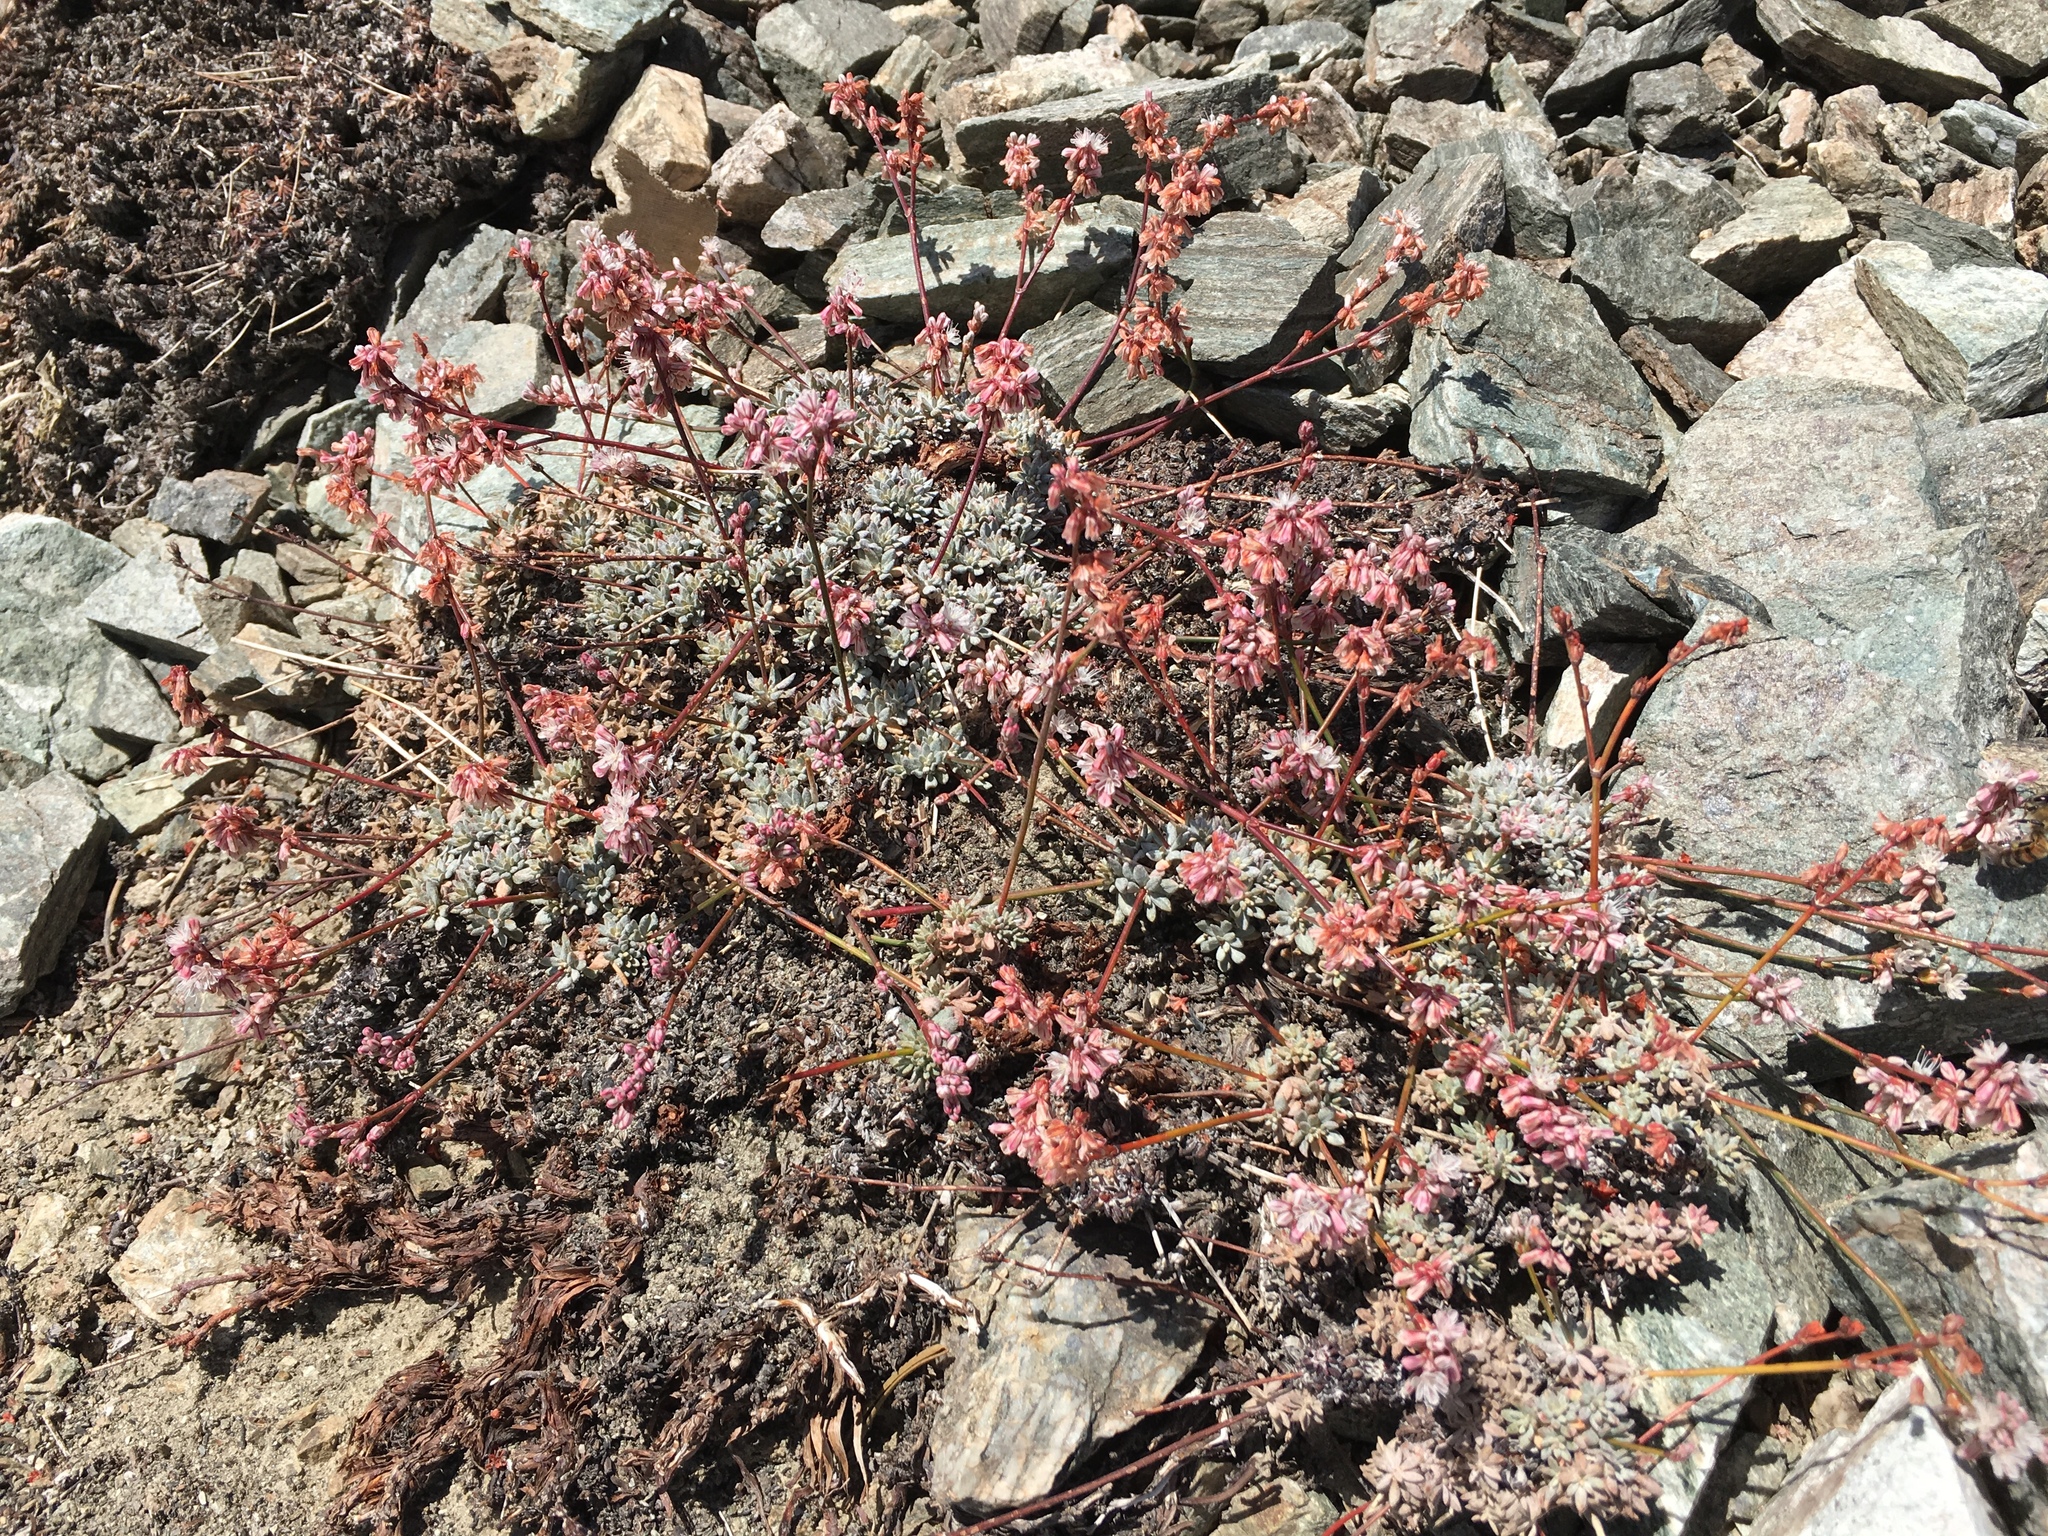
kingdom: Plantae
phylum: Tracheophyta
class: Magnoliopsida
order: Caryophyllales
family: Polygonaceae
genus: Eriogonum
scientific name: Eriogonum wrightii
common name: Bastard-sage
